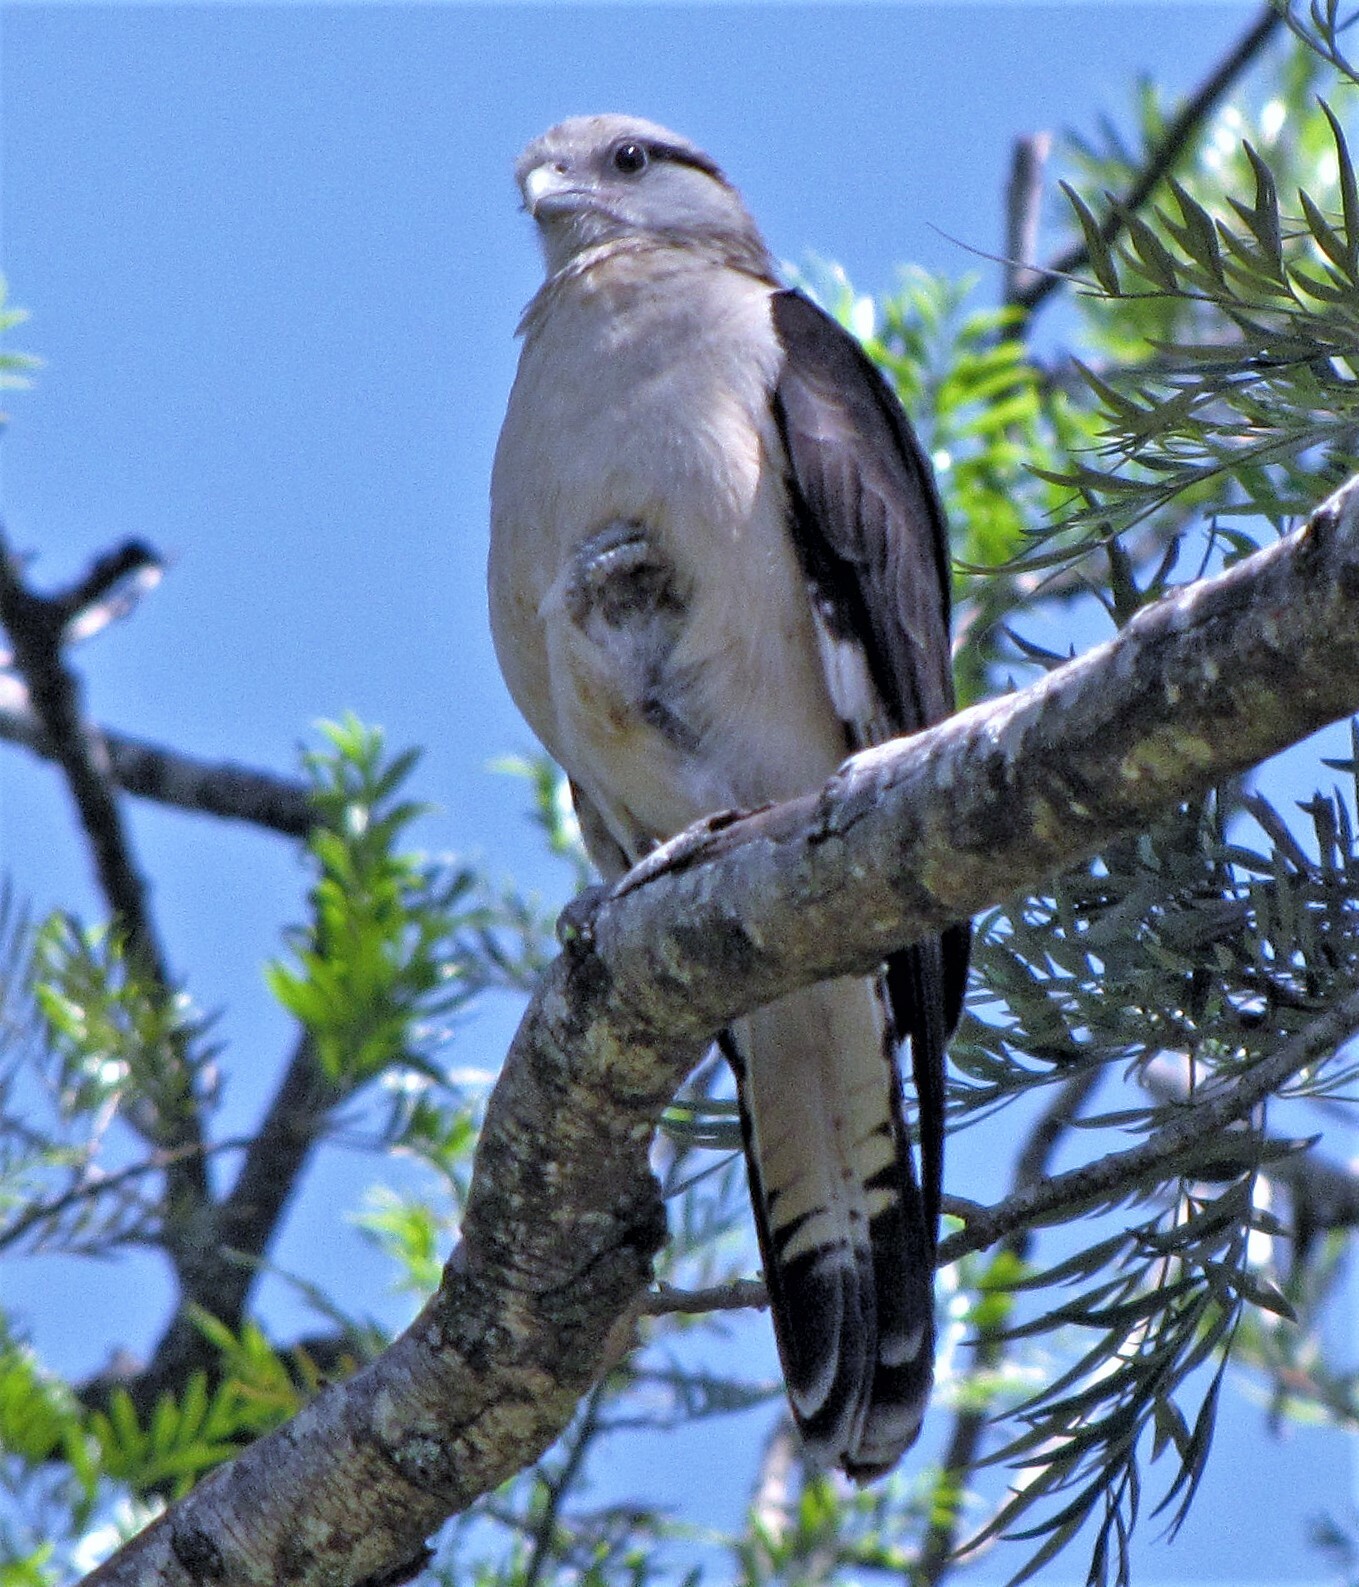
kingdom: Animalia
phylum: Chordata
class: Aves
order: Falconiformes
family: Falconidae
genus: Daptrius
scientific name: Daptrius
